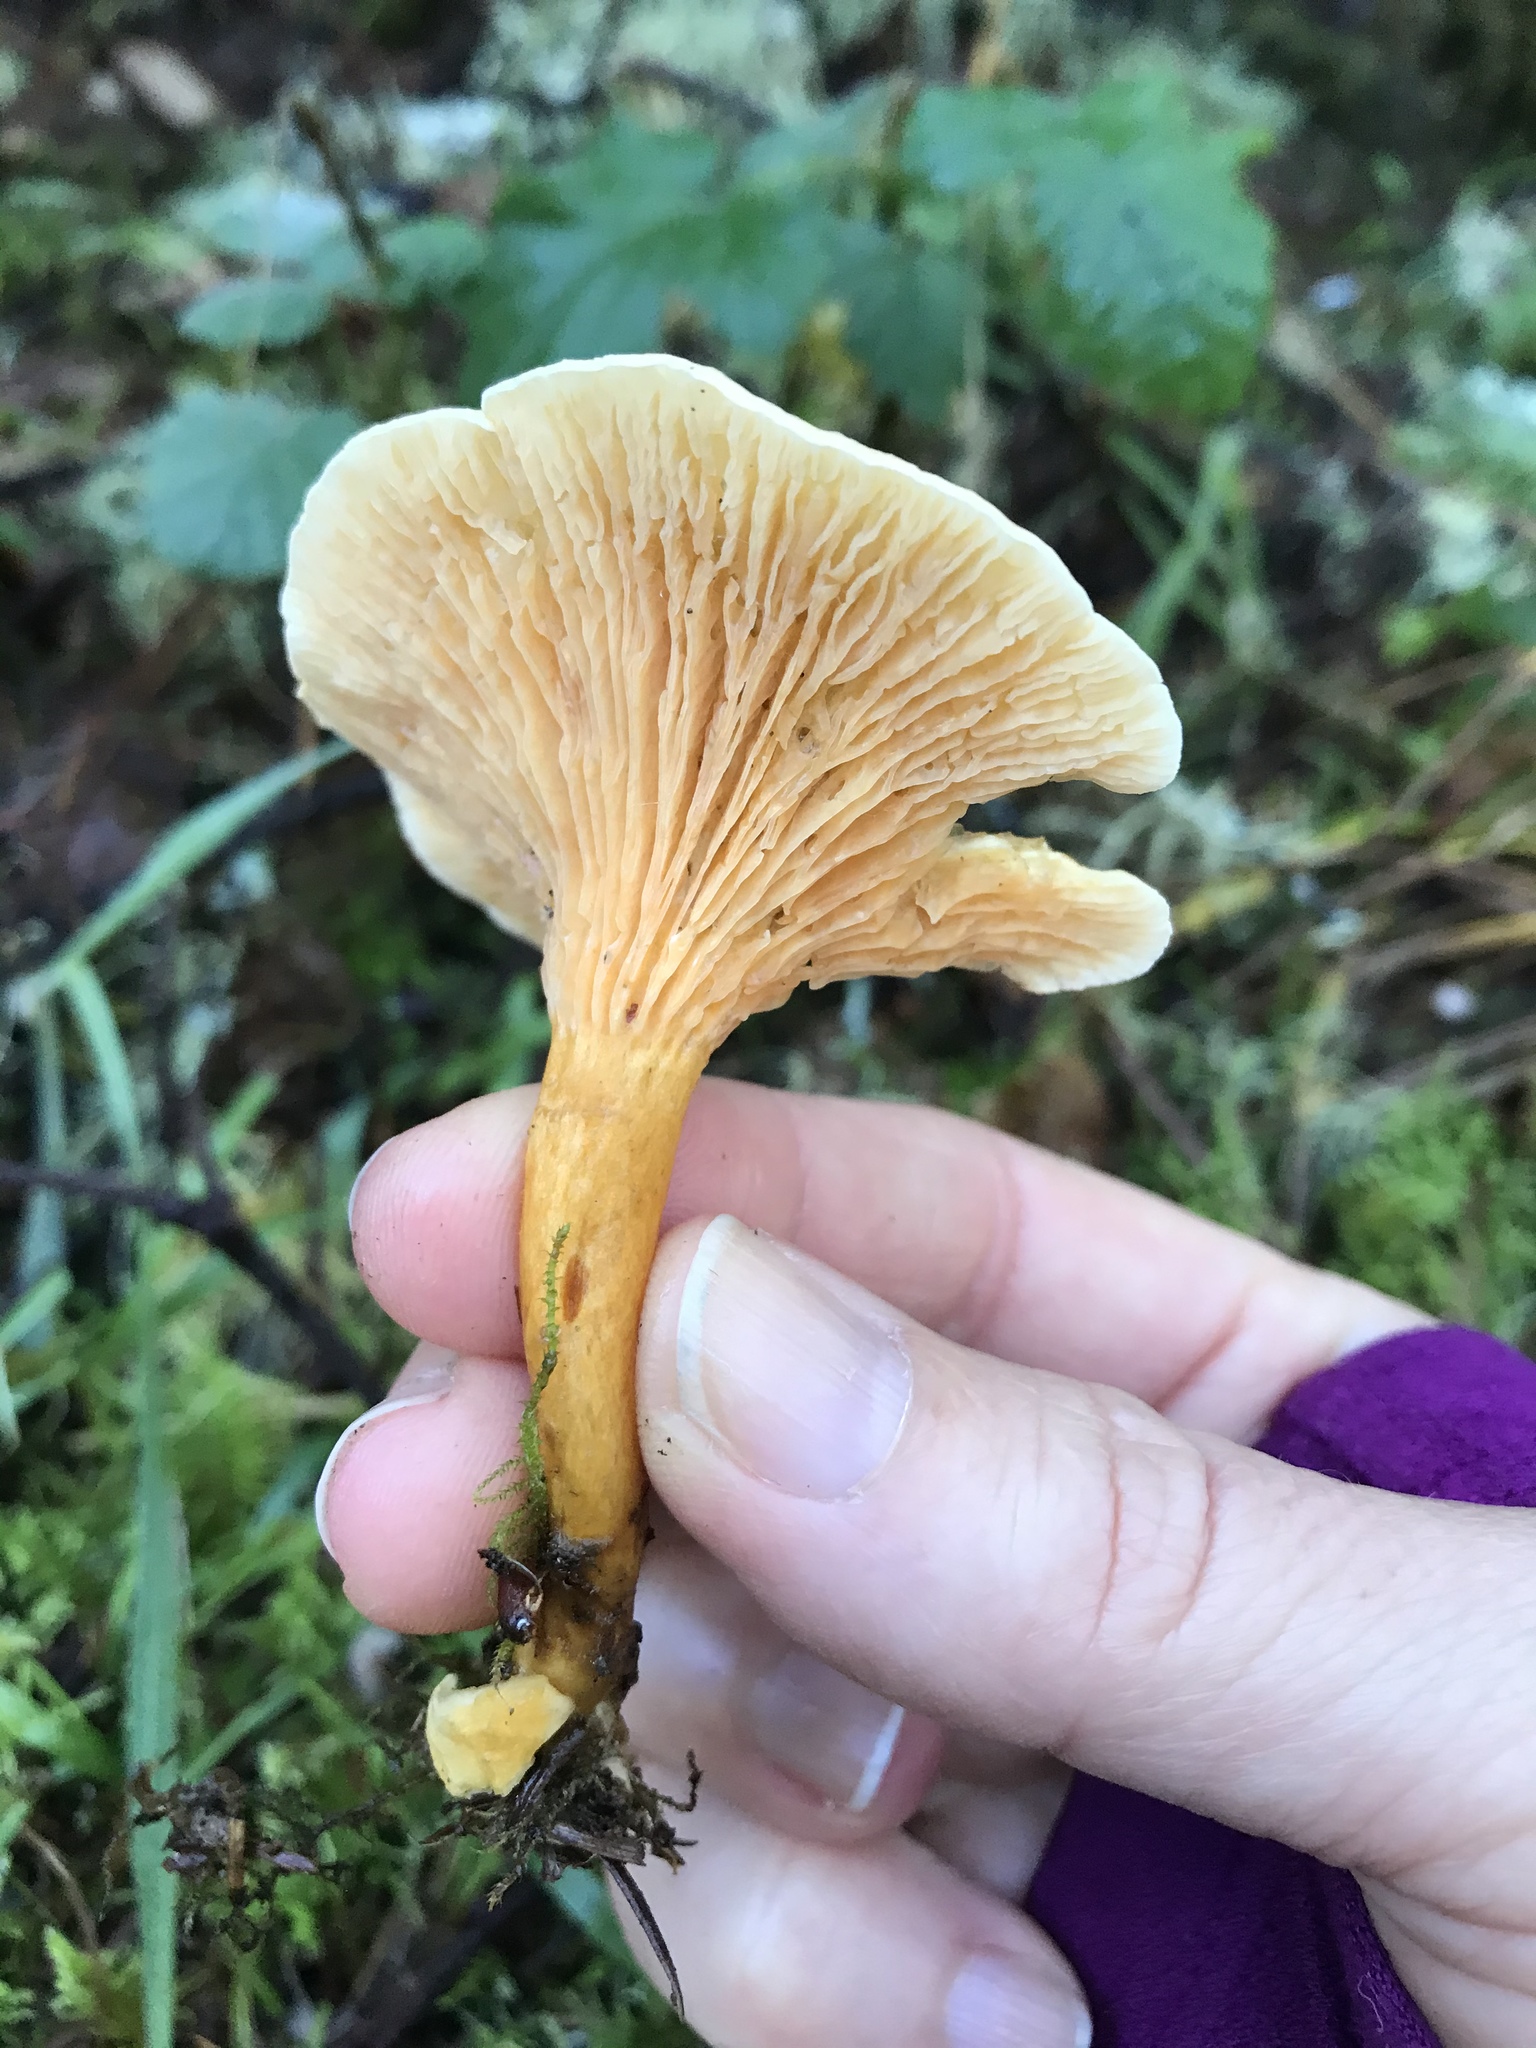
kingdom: Fungi
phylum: Basidiomycota
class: Agaricomycetes
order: Boletales
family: Hygrophoropsidaceae
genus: Hygrophoropsis
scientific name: Hygrophoropsis aurantiaca
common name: False chanterelle
